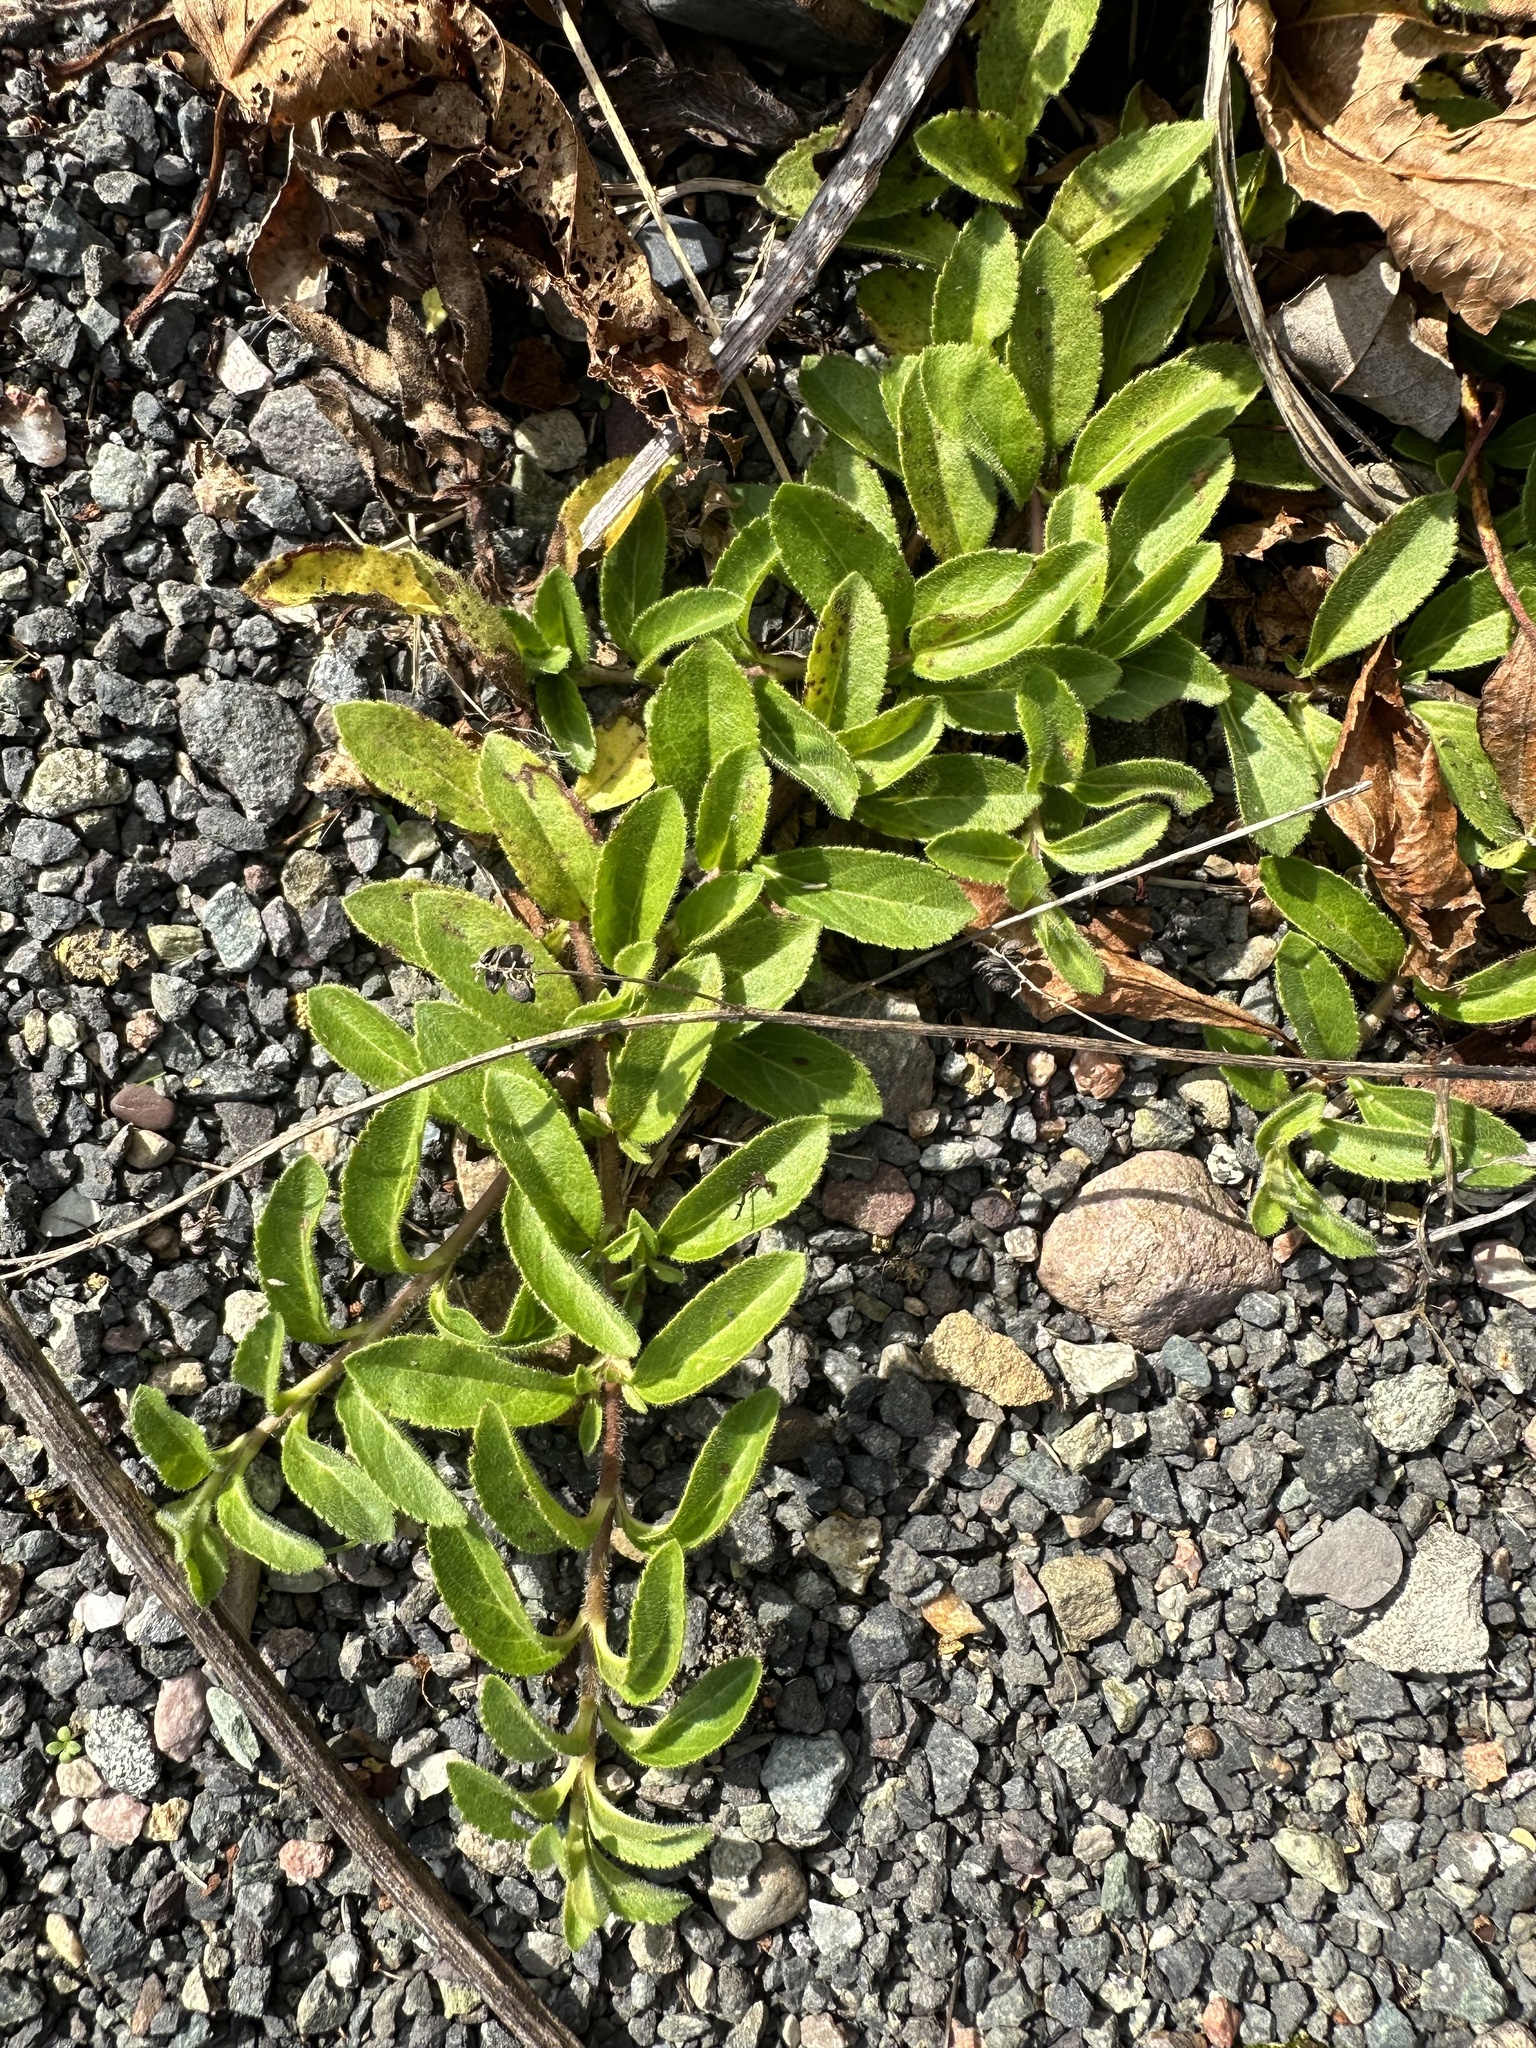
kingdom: Plantae
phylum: Tracheophyta
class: Magnoliopsida
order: Lamiales
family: Plantaginaceae
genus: Veronica
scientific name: Veronica officinalis
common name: Common speedwell
